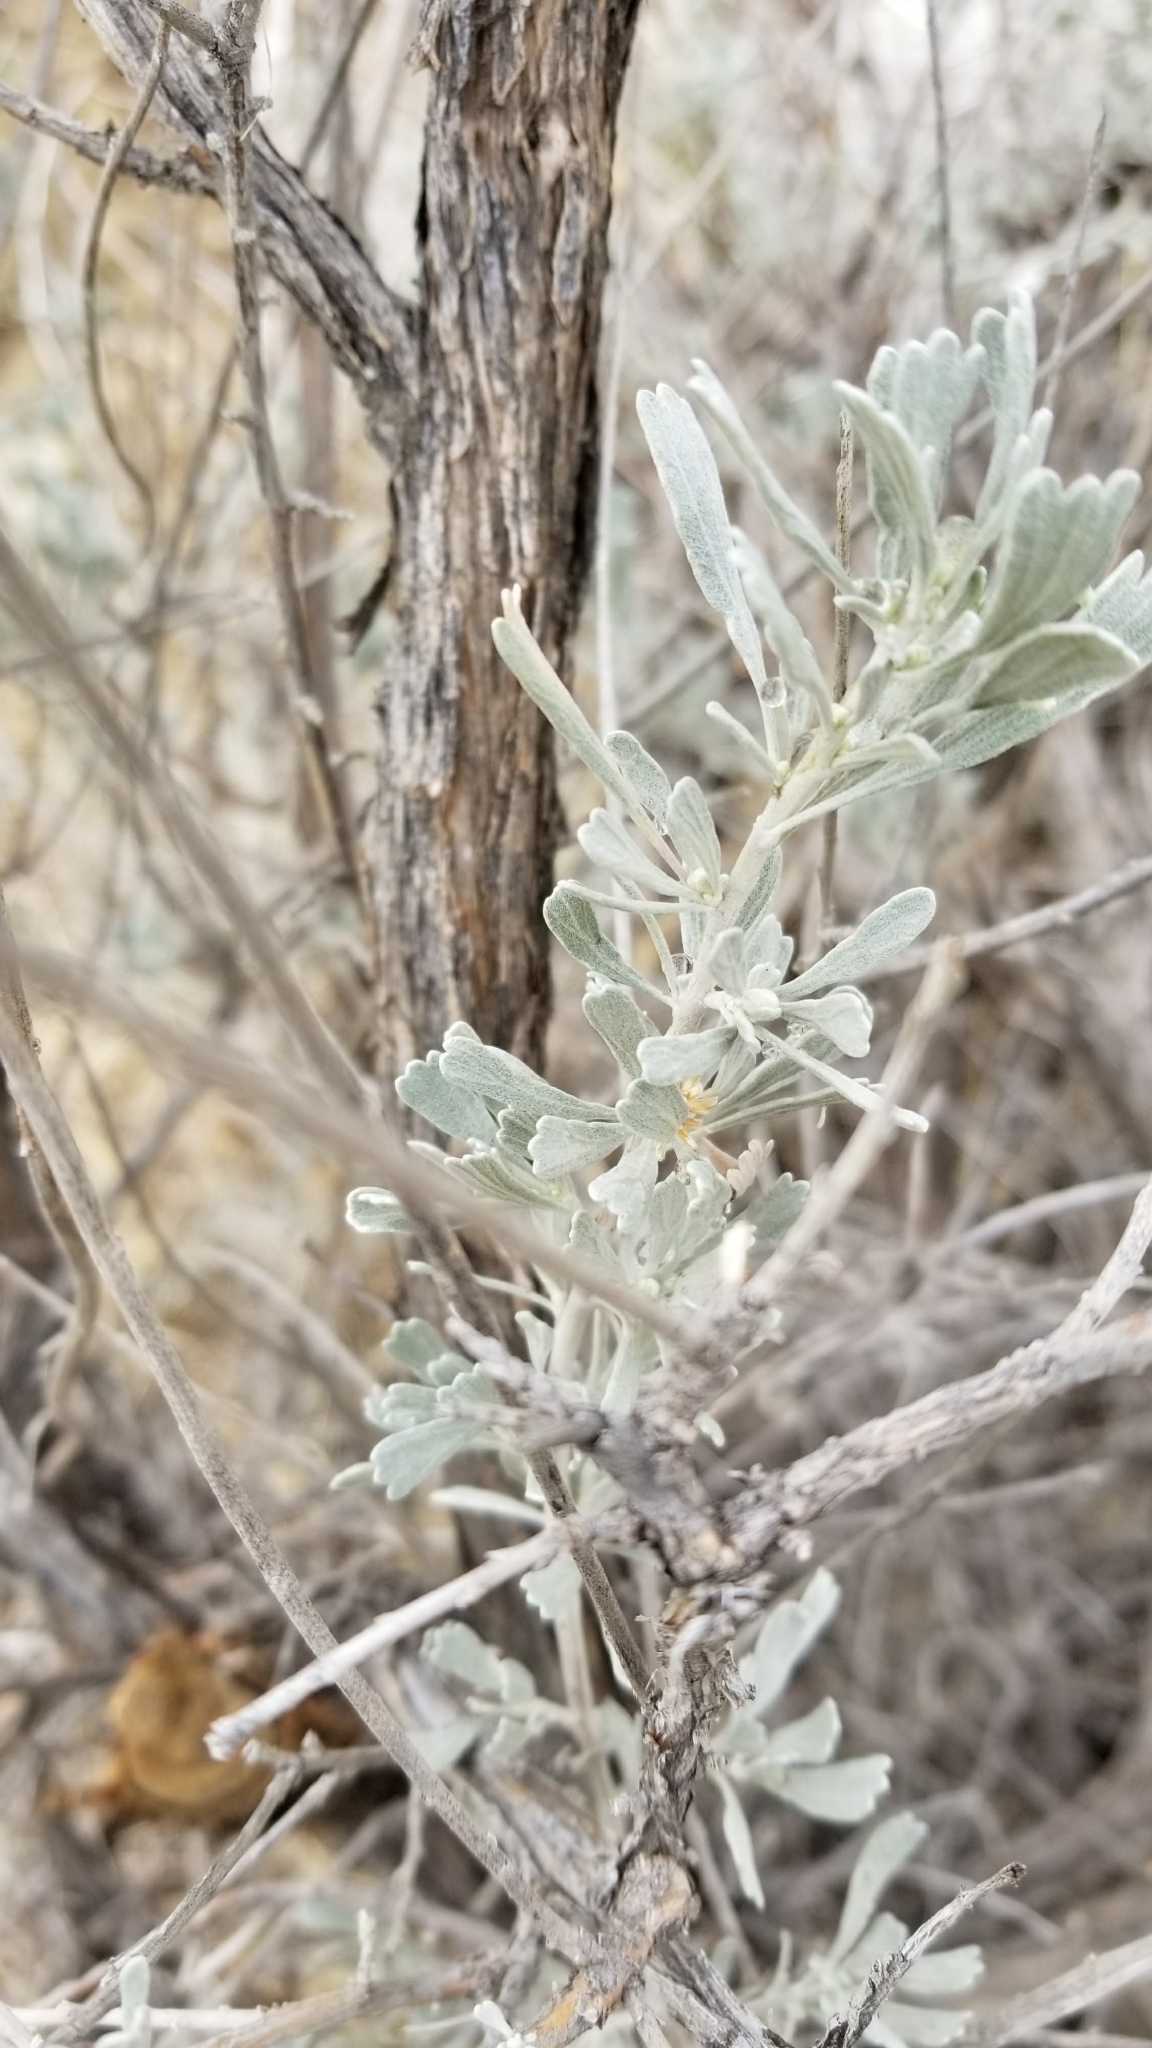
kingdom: Plantae
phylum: Tracheophyta
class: Magnoliopsida
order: Asterales
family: Asteraceae
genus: Artemisia
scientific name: Artemisia tridentata
